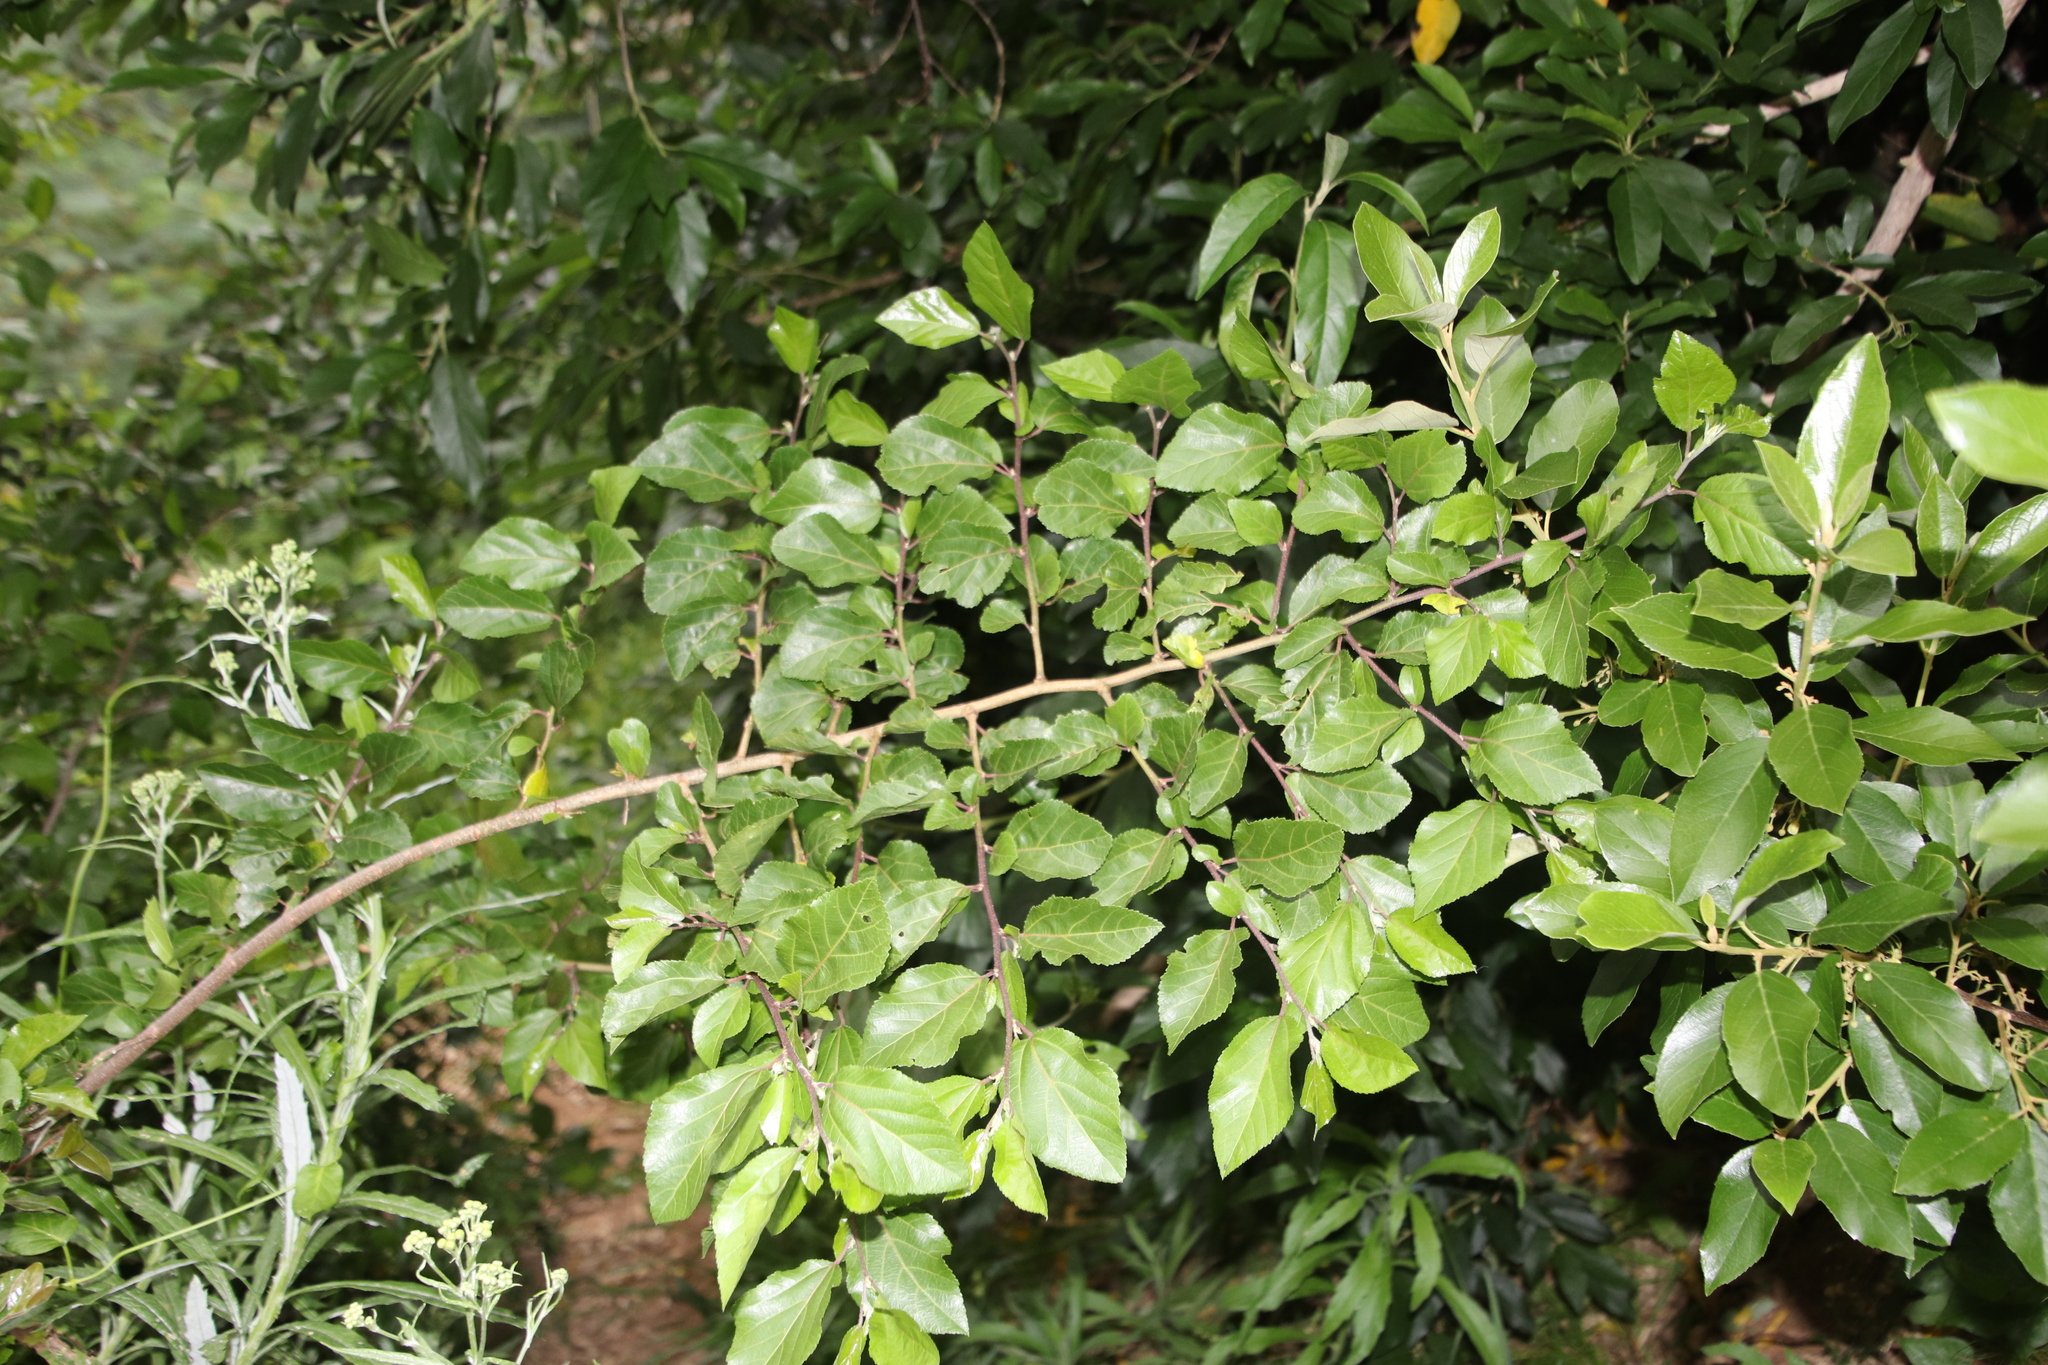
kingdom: Plantae
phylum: Tracheophyta
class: Magnoliopsida
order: Malvales
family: Malvaceae
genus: Grewia
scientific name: Grewia occidentalis
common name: Crossberry
